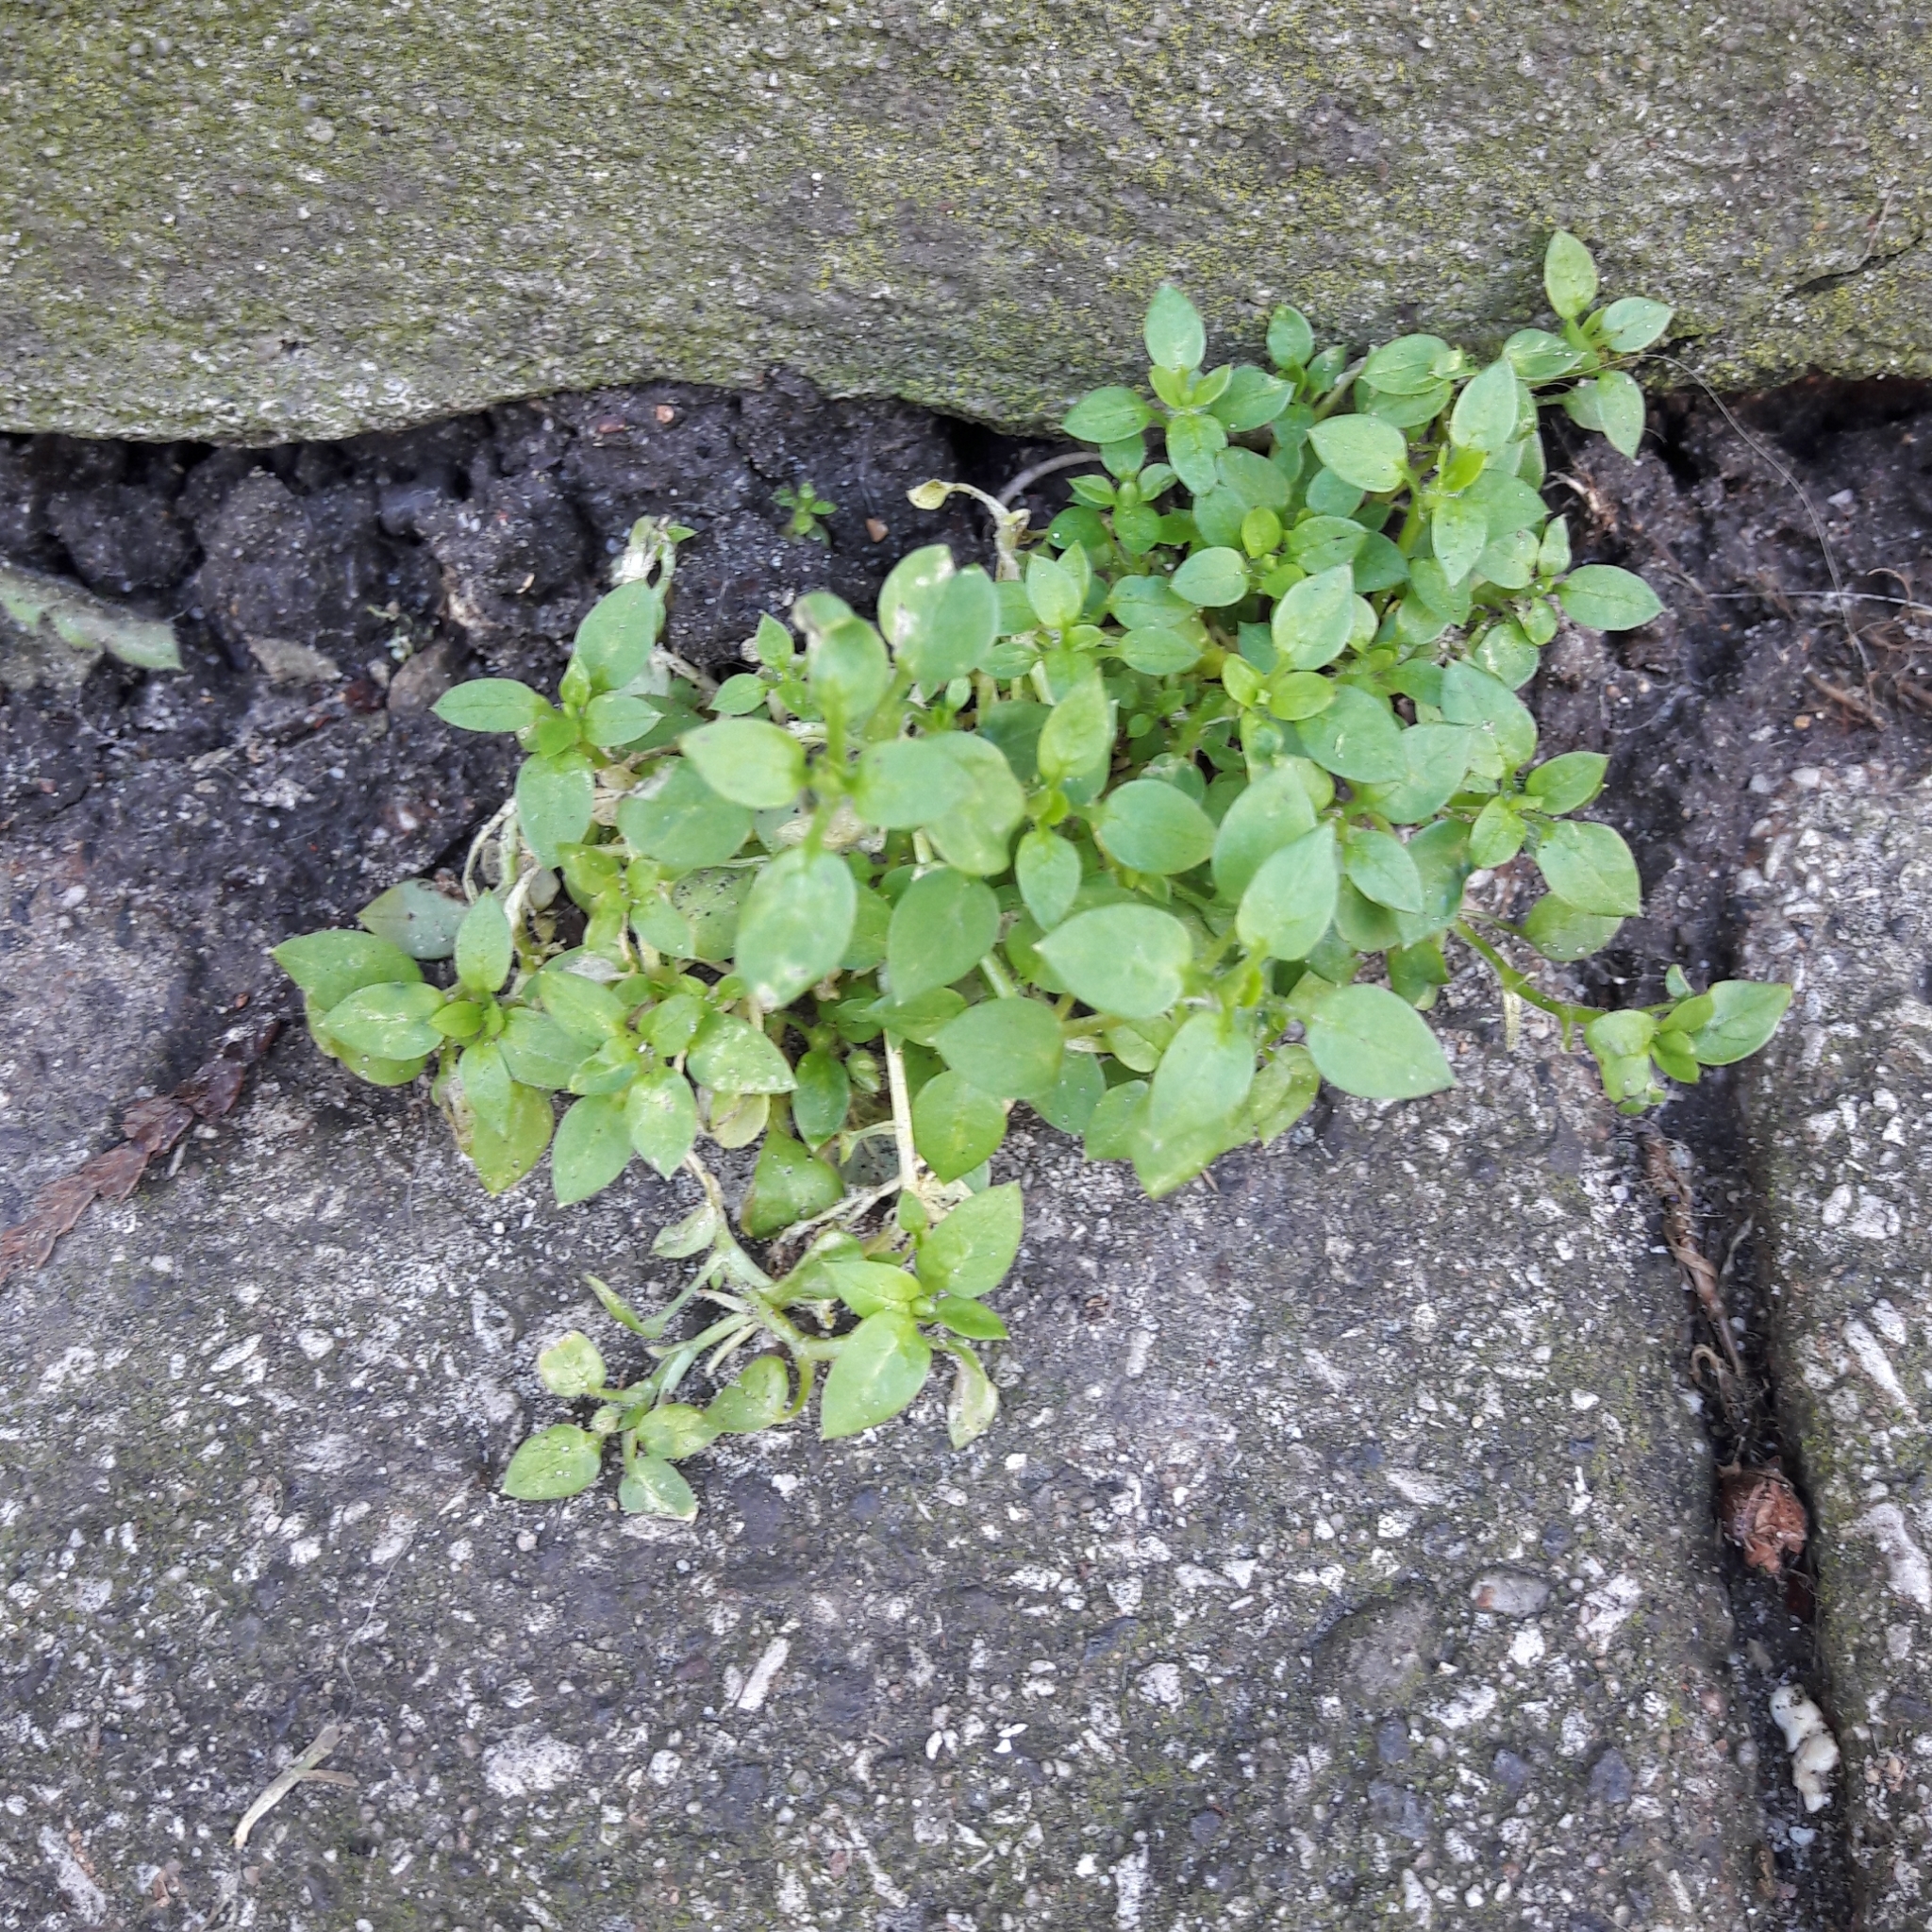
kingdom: Plantae
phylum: Tracheophyta
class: Magnoliopsida
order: Caryophyllales
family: Caryophyllaceae
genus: Stellaria
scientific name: Stellaria media
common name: Common chickweed
